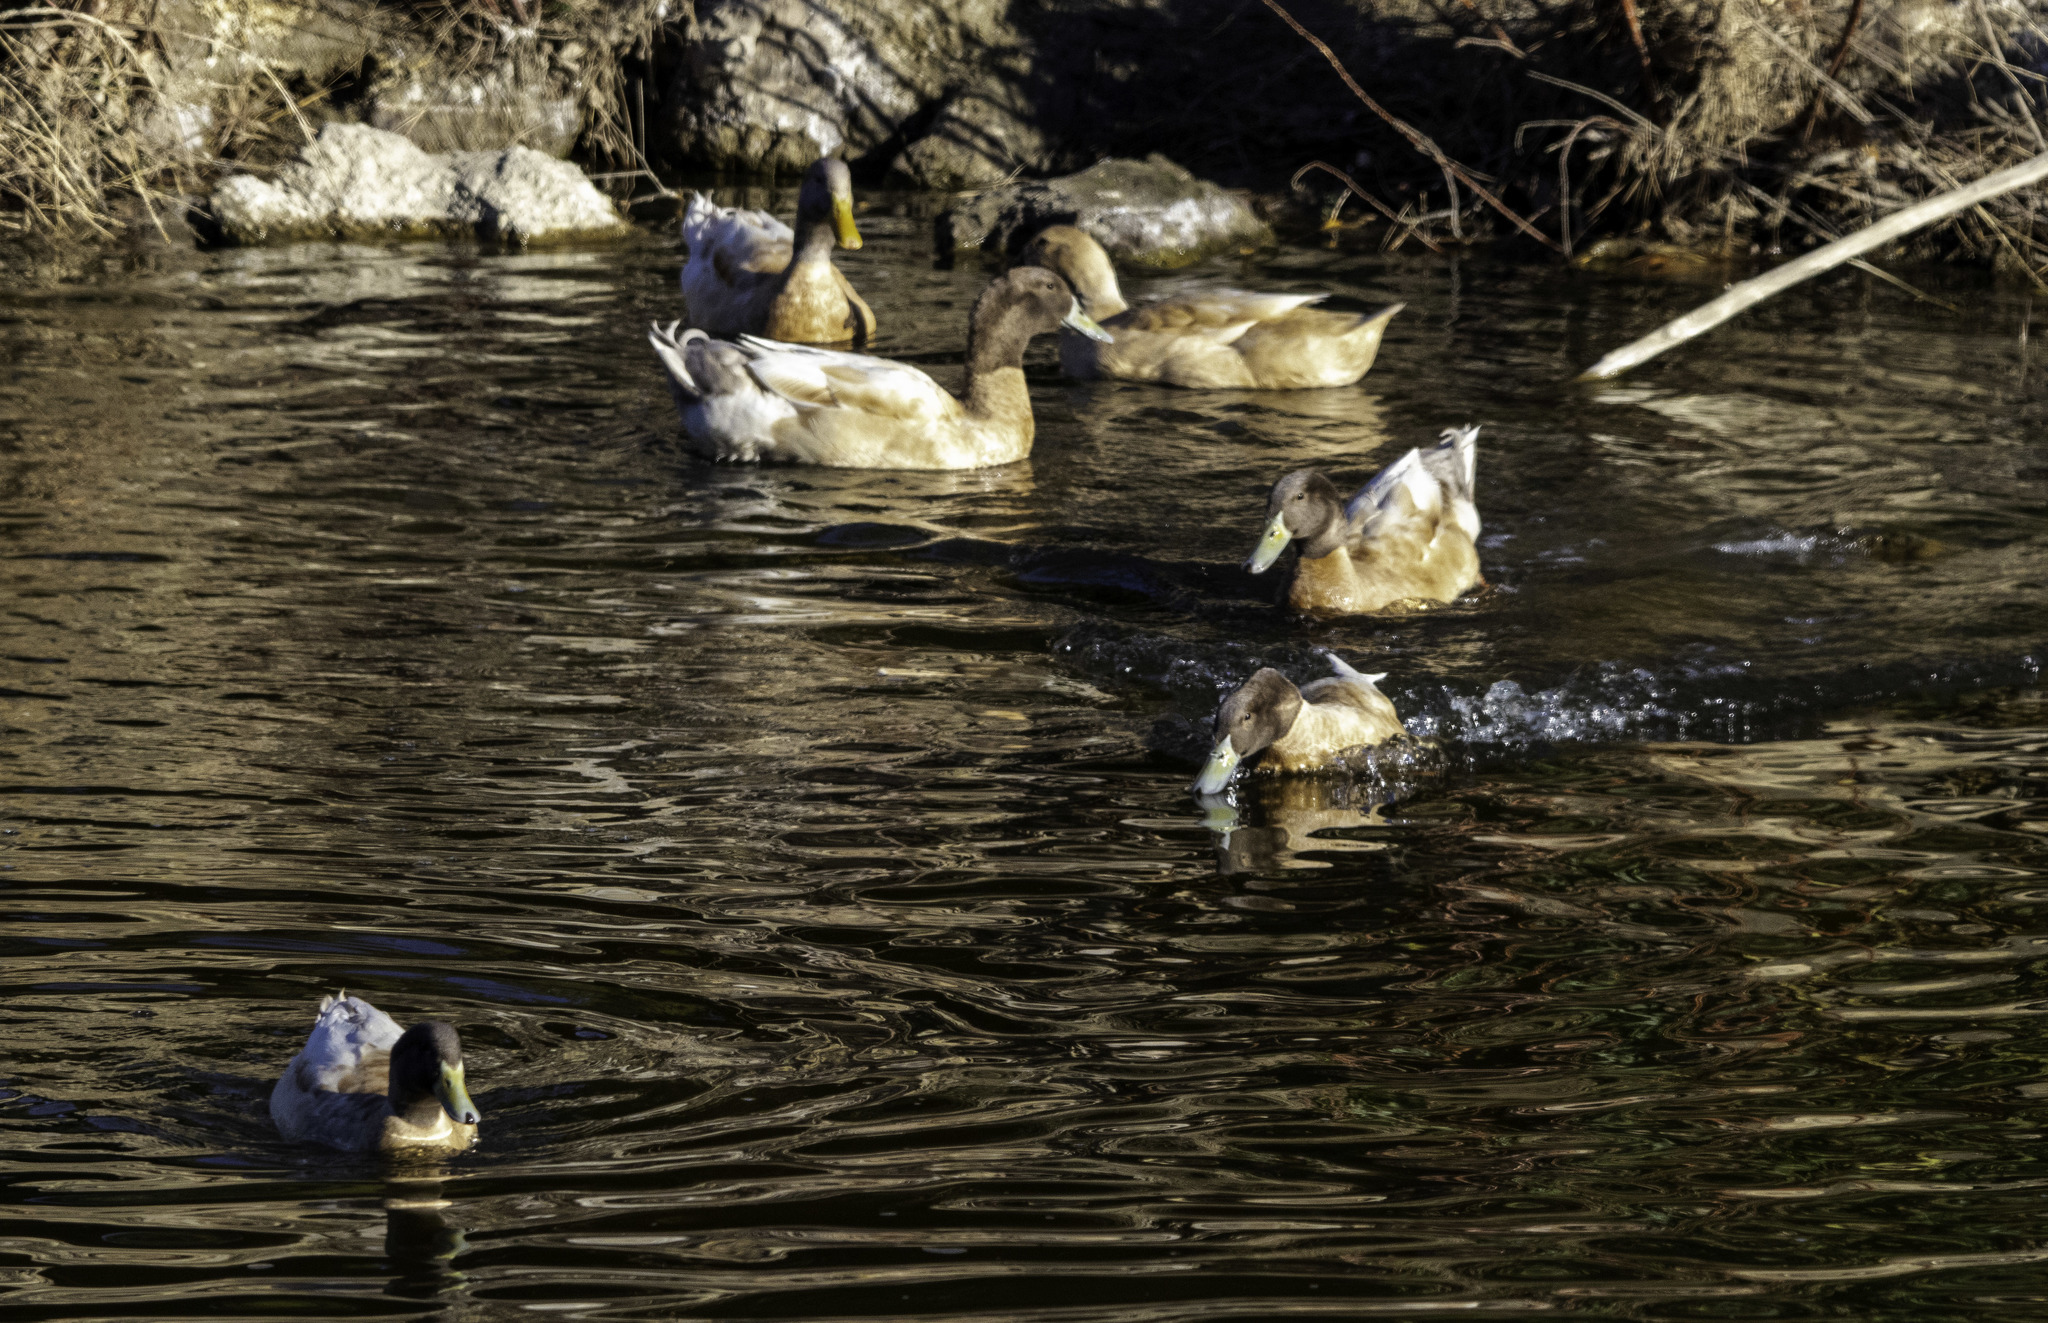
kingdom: Animalia
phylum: Chordata
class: Aves
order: Anseriformes
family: Anatidae
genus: Anas
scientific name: Anas platyrhynchos
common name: Mallard
